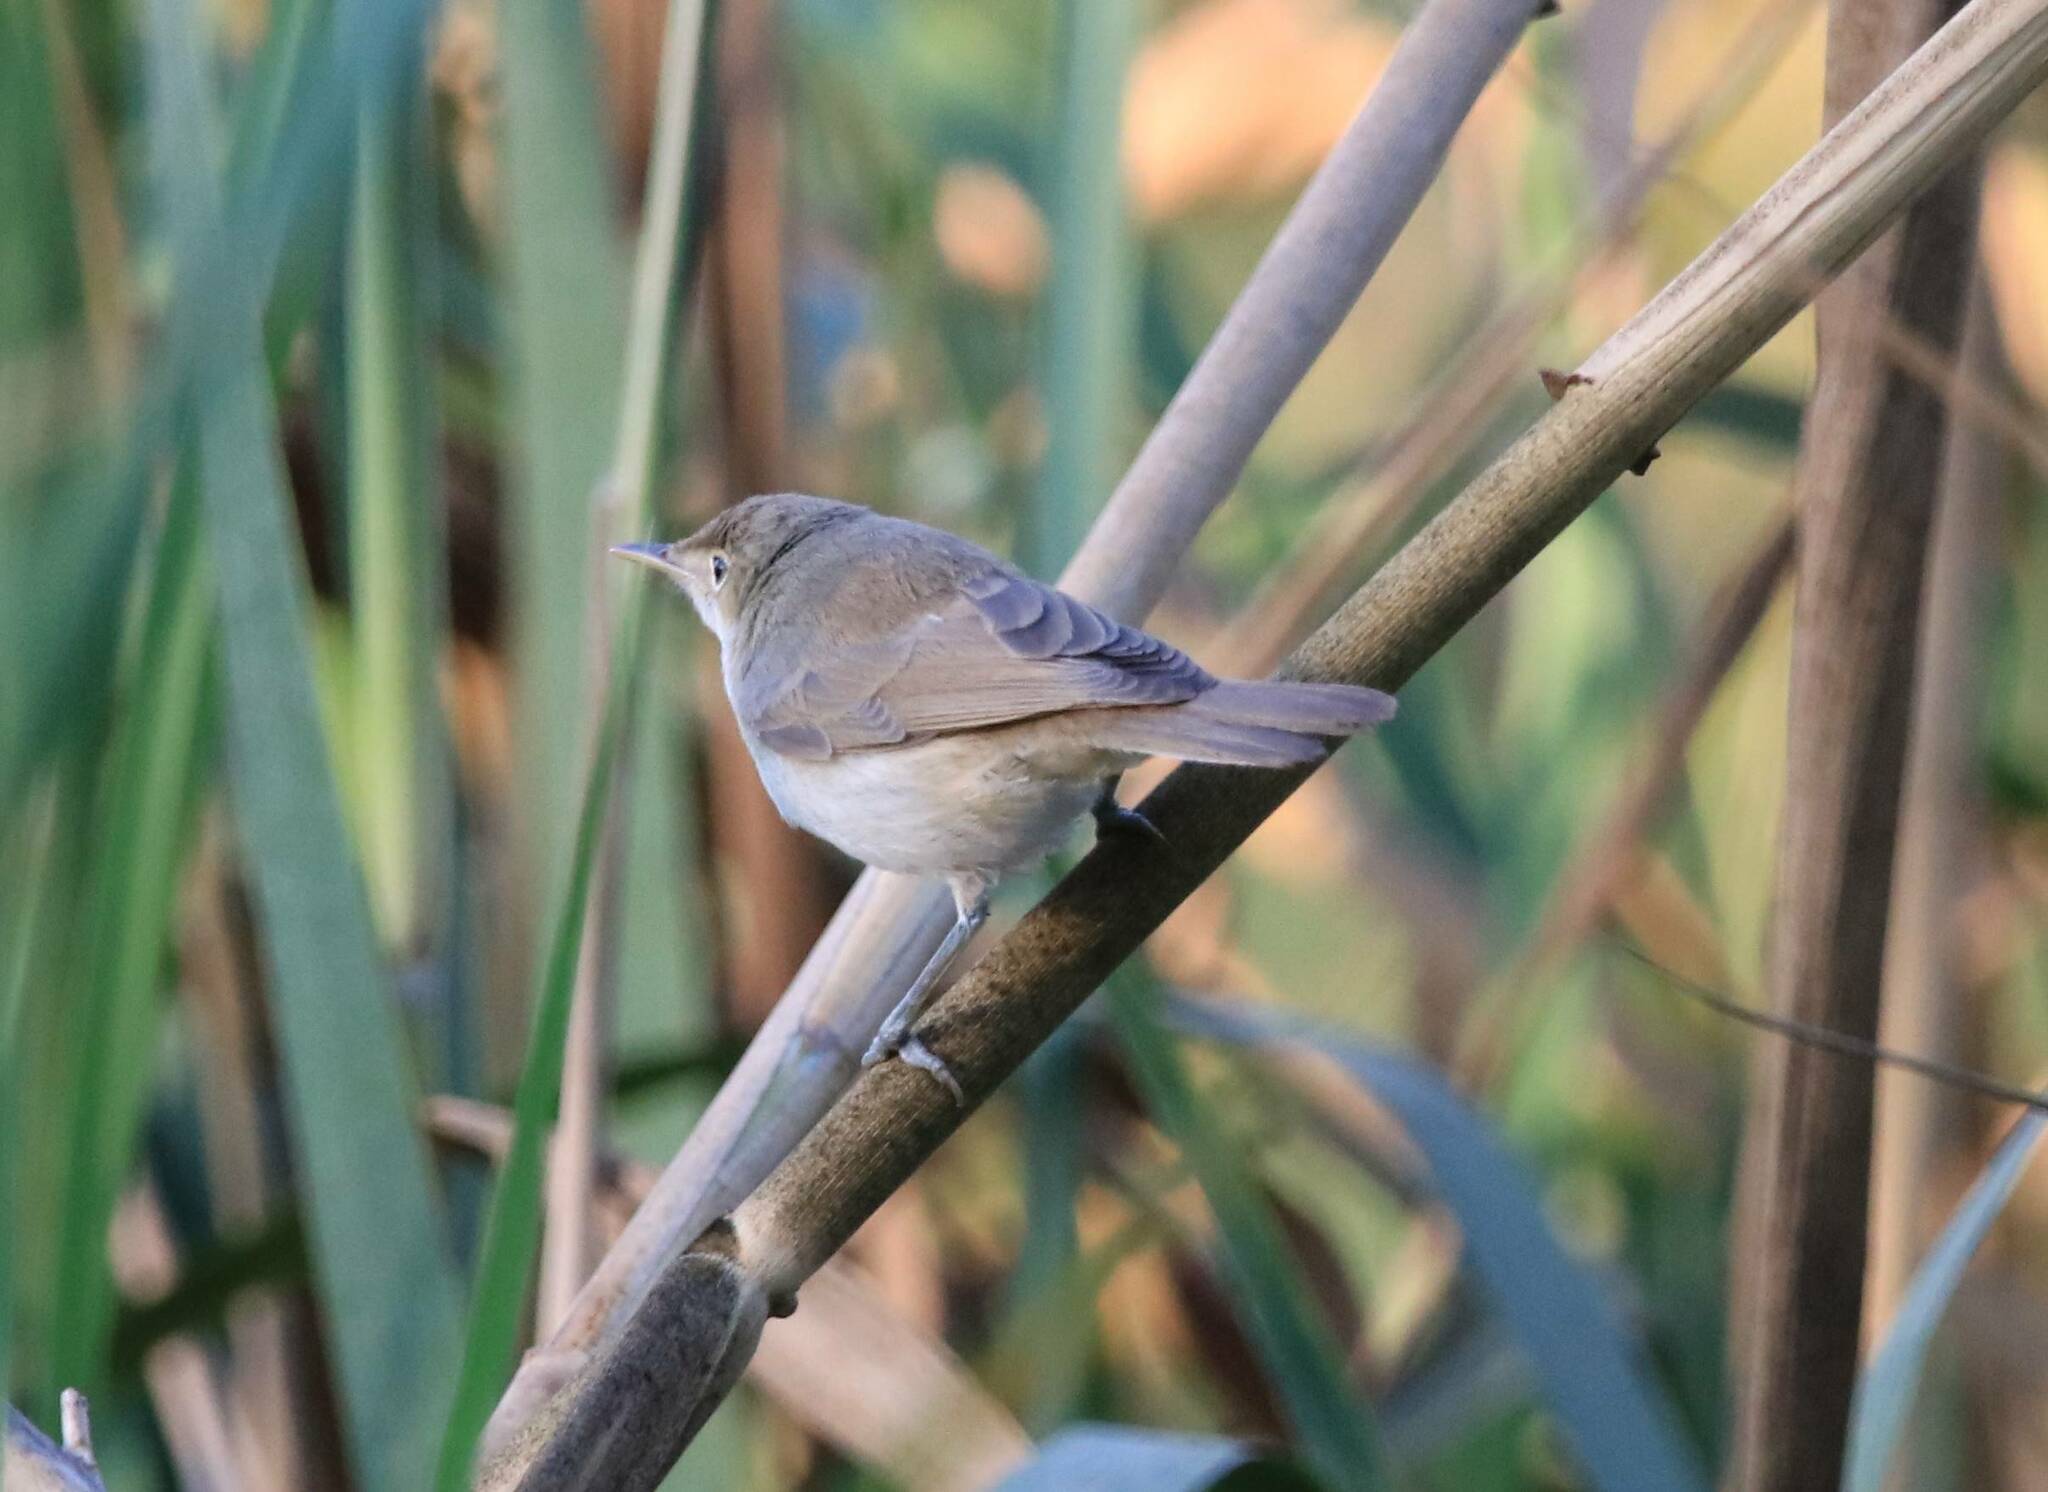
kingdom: Animalia
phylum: Chordata
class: Aves
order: Passeriformes
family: Acrocephalidae
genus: Acrocephalus
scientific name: Acrocephalus scirpaceus
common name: Eurasian reed warbler
